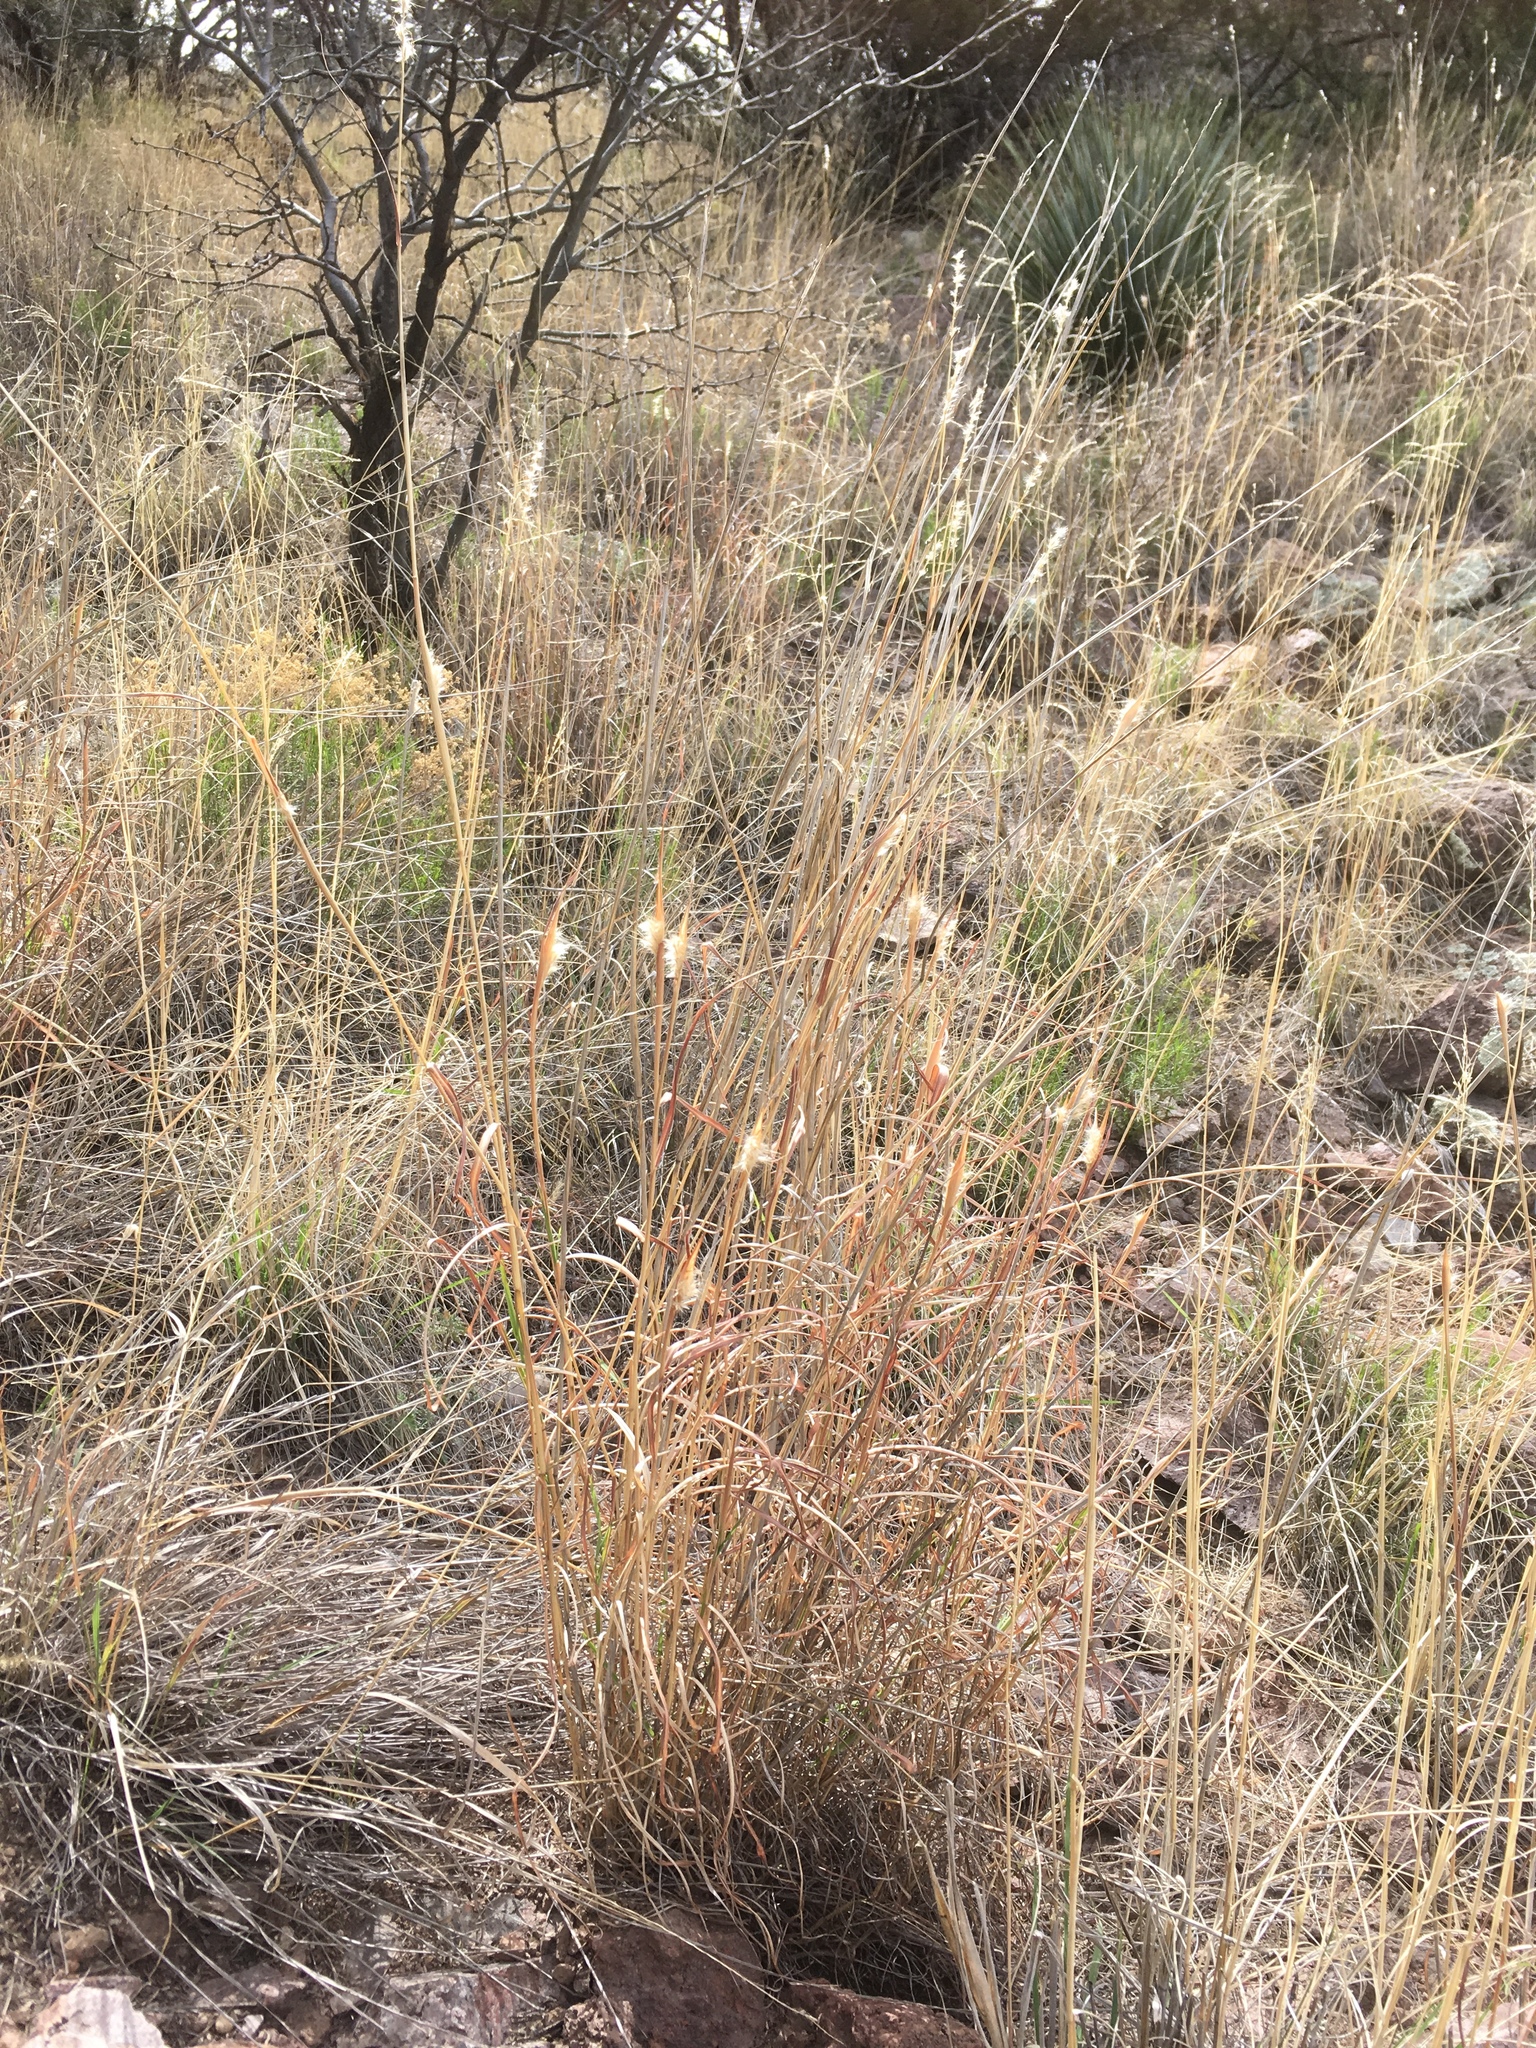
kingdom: Plantae
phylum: Tracheophyta
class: Liliopsida
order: Poales
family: Poaceae
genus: Bothriochloa
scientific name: Bothriochloa barbinodis
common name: Cane bluestem
